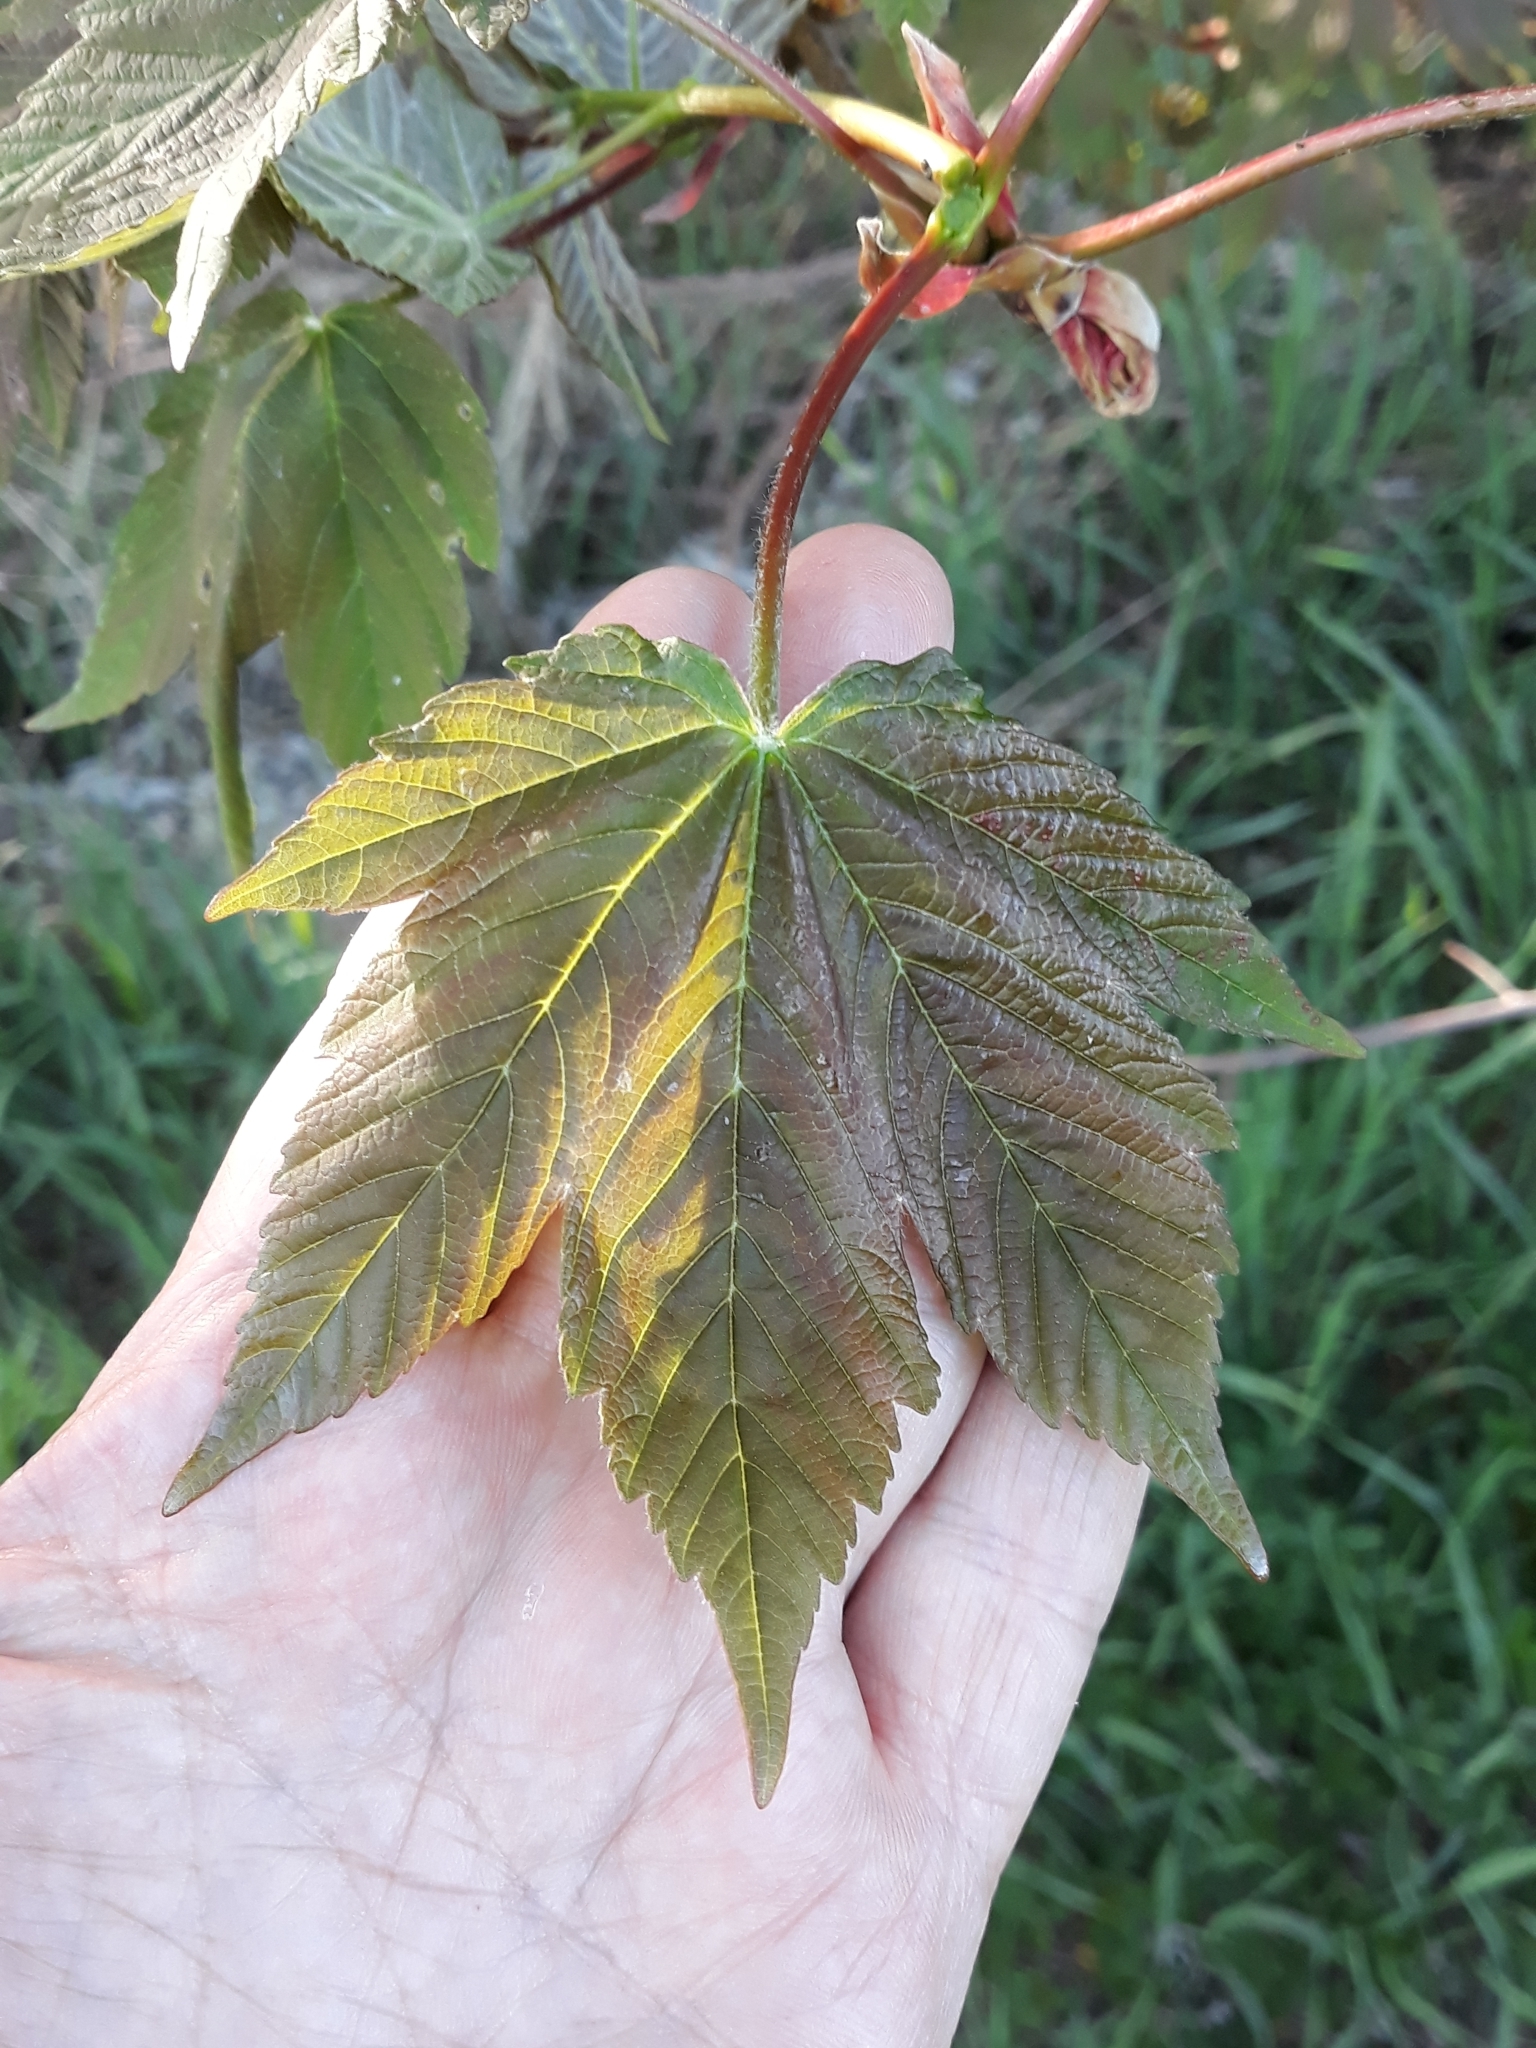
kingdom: Plantae
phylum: Tracheophyta
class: Magnoliopsida
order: Sapindales
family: Sapindaceae
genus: Acer
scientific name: Acer pseudoplatanus
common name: Sycamore
